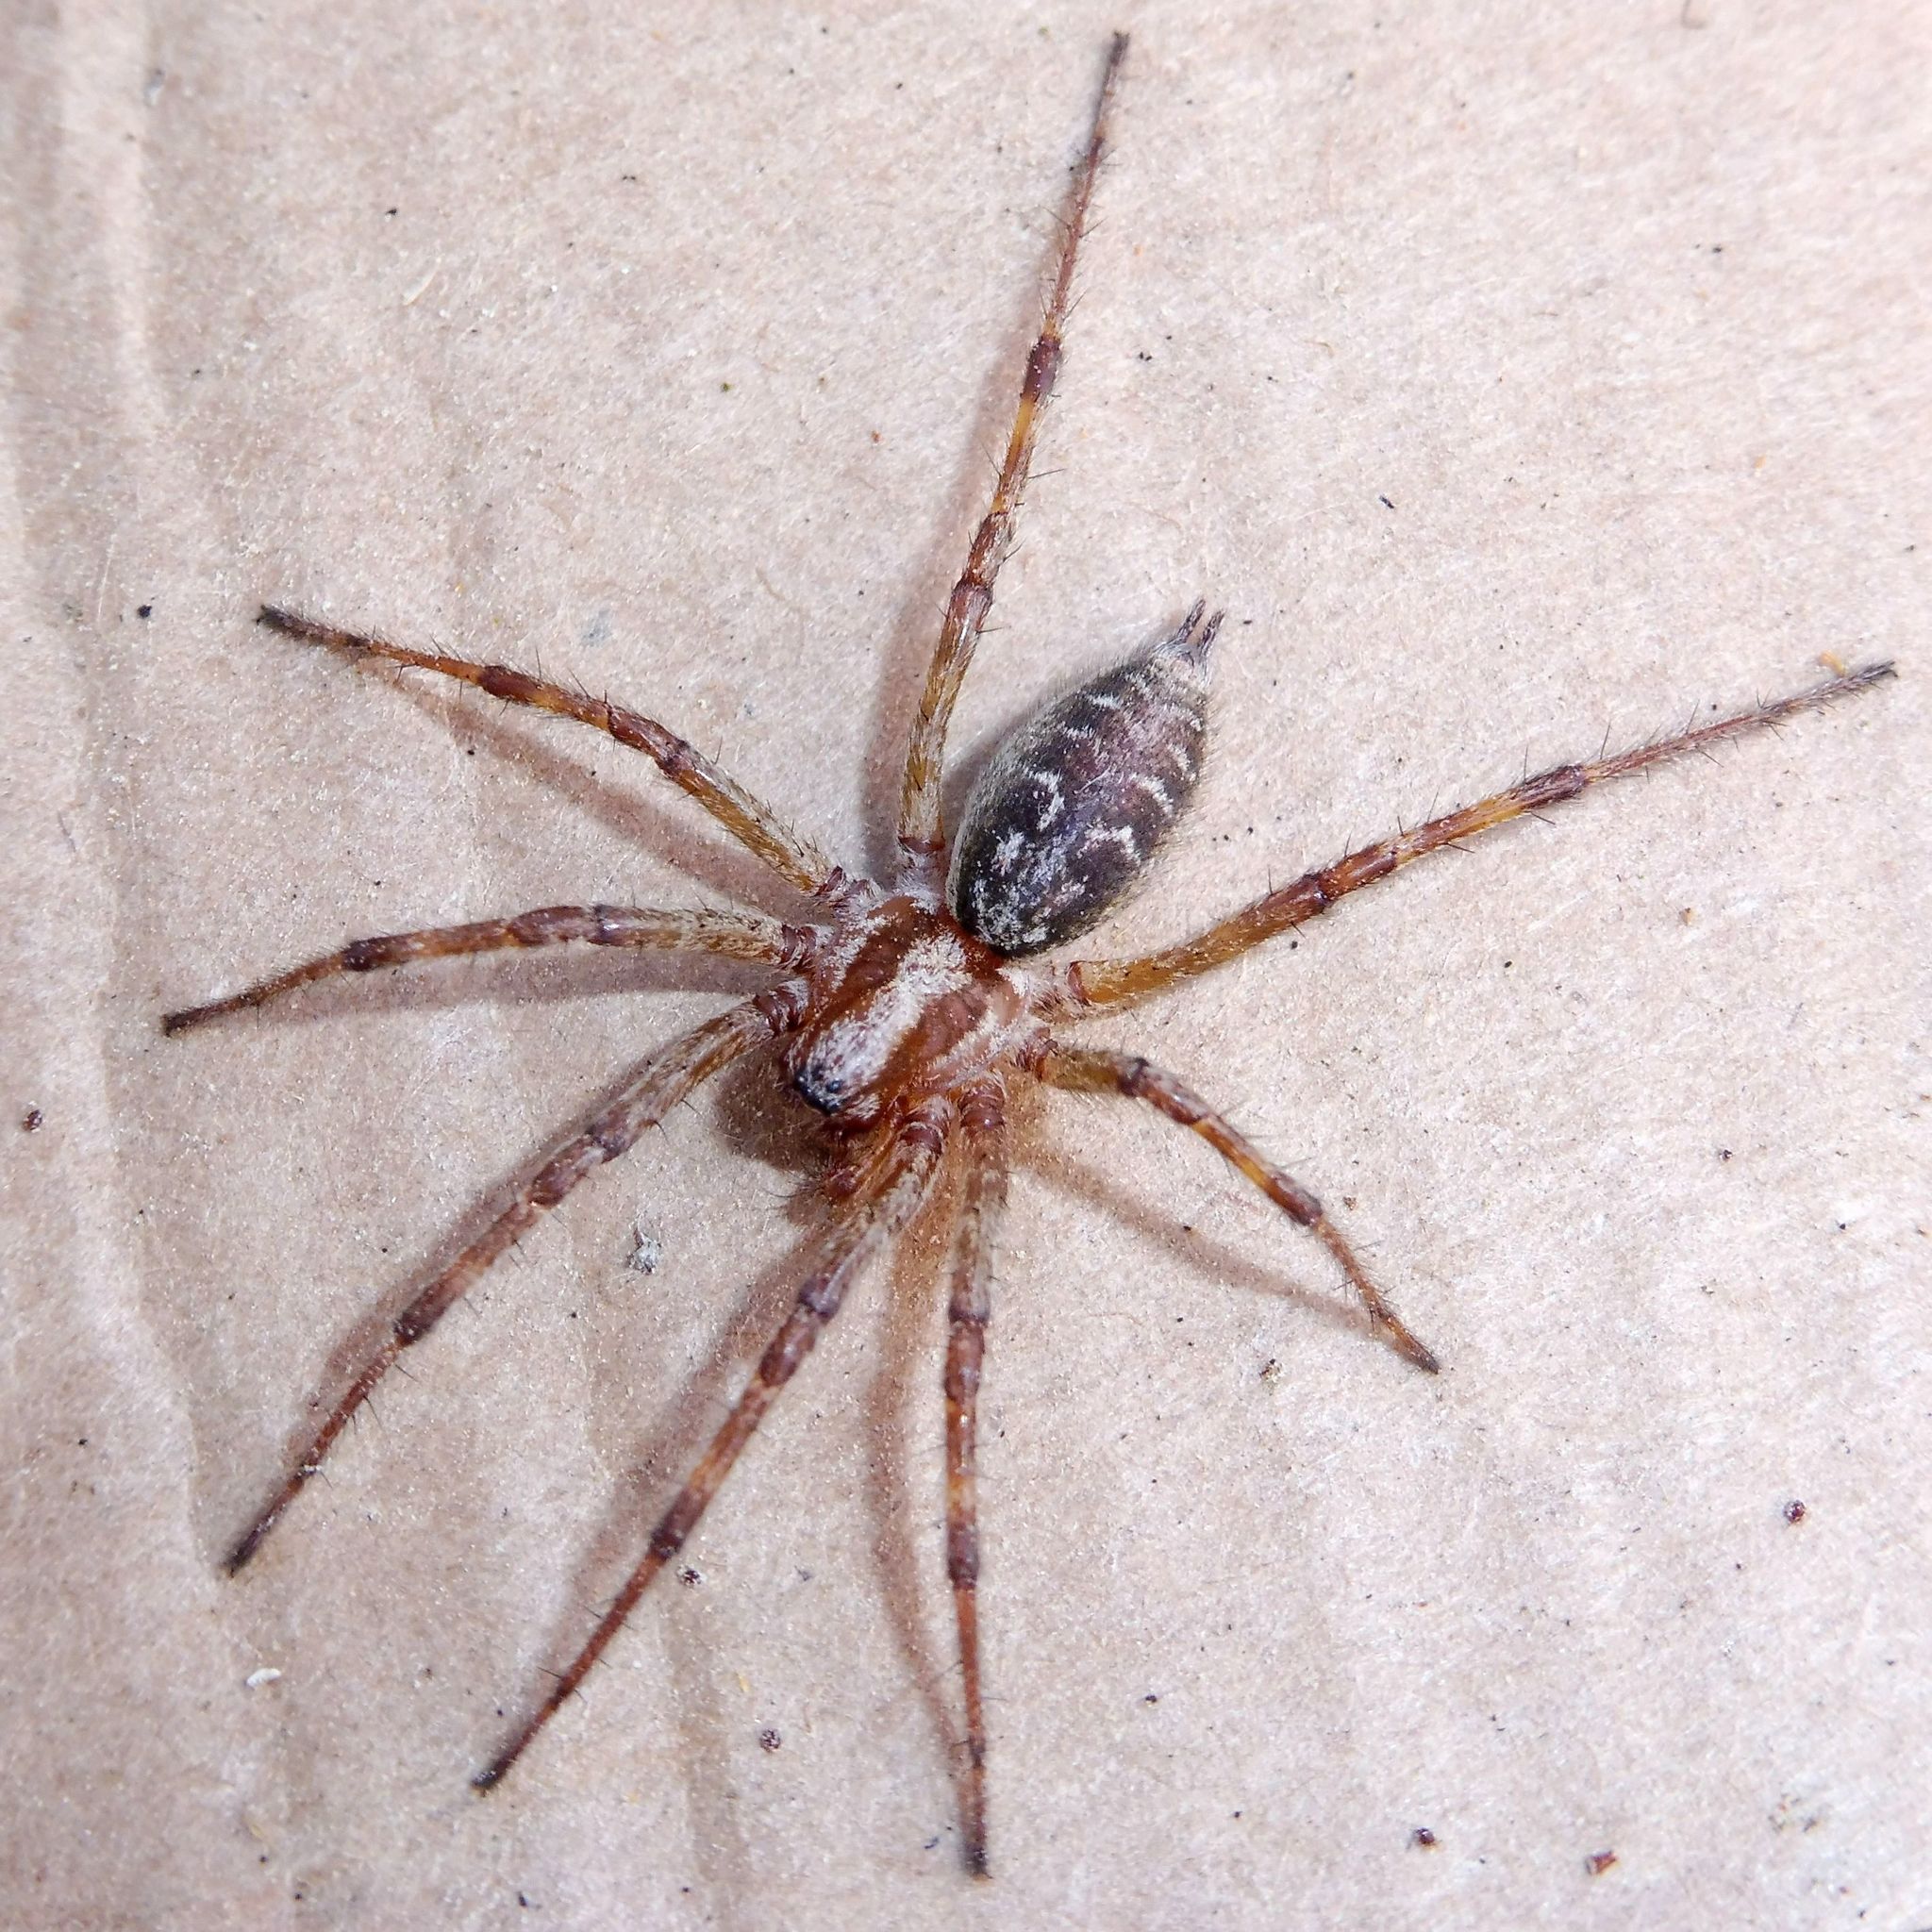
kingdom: Animalia
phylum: Arthropoda
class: Arachnida
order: Araneae
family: Agelenidae
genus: Agelena
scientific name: Agelena labyrinthica
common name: Labyrinth spider
